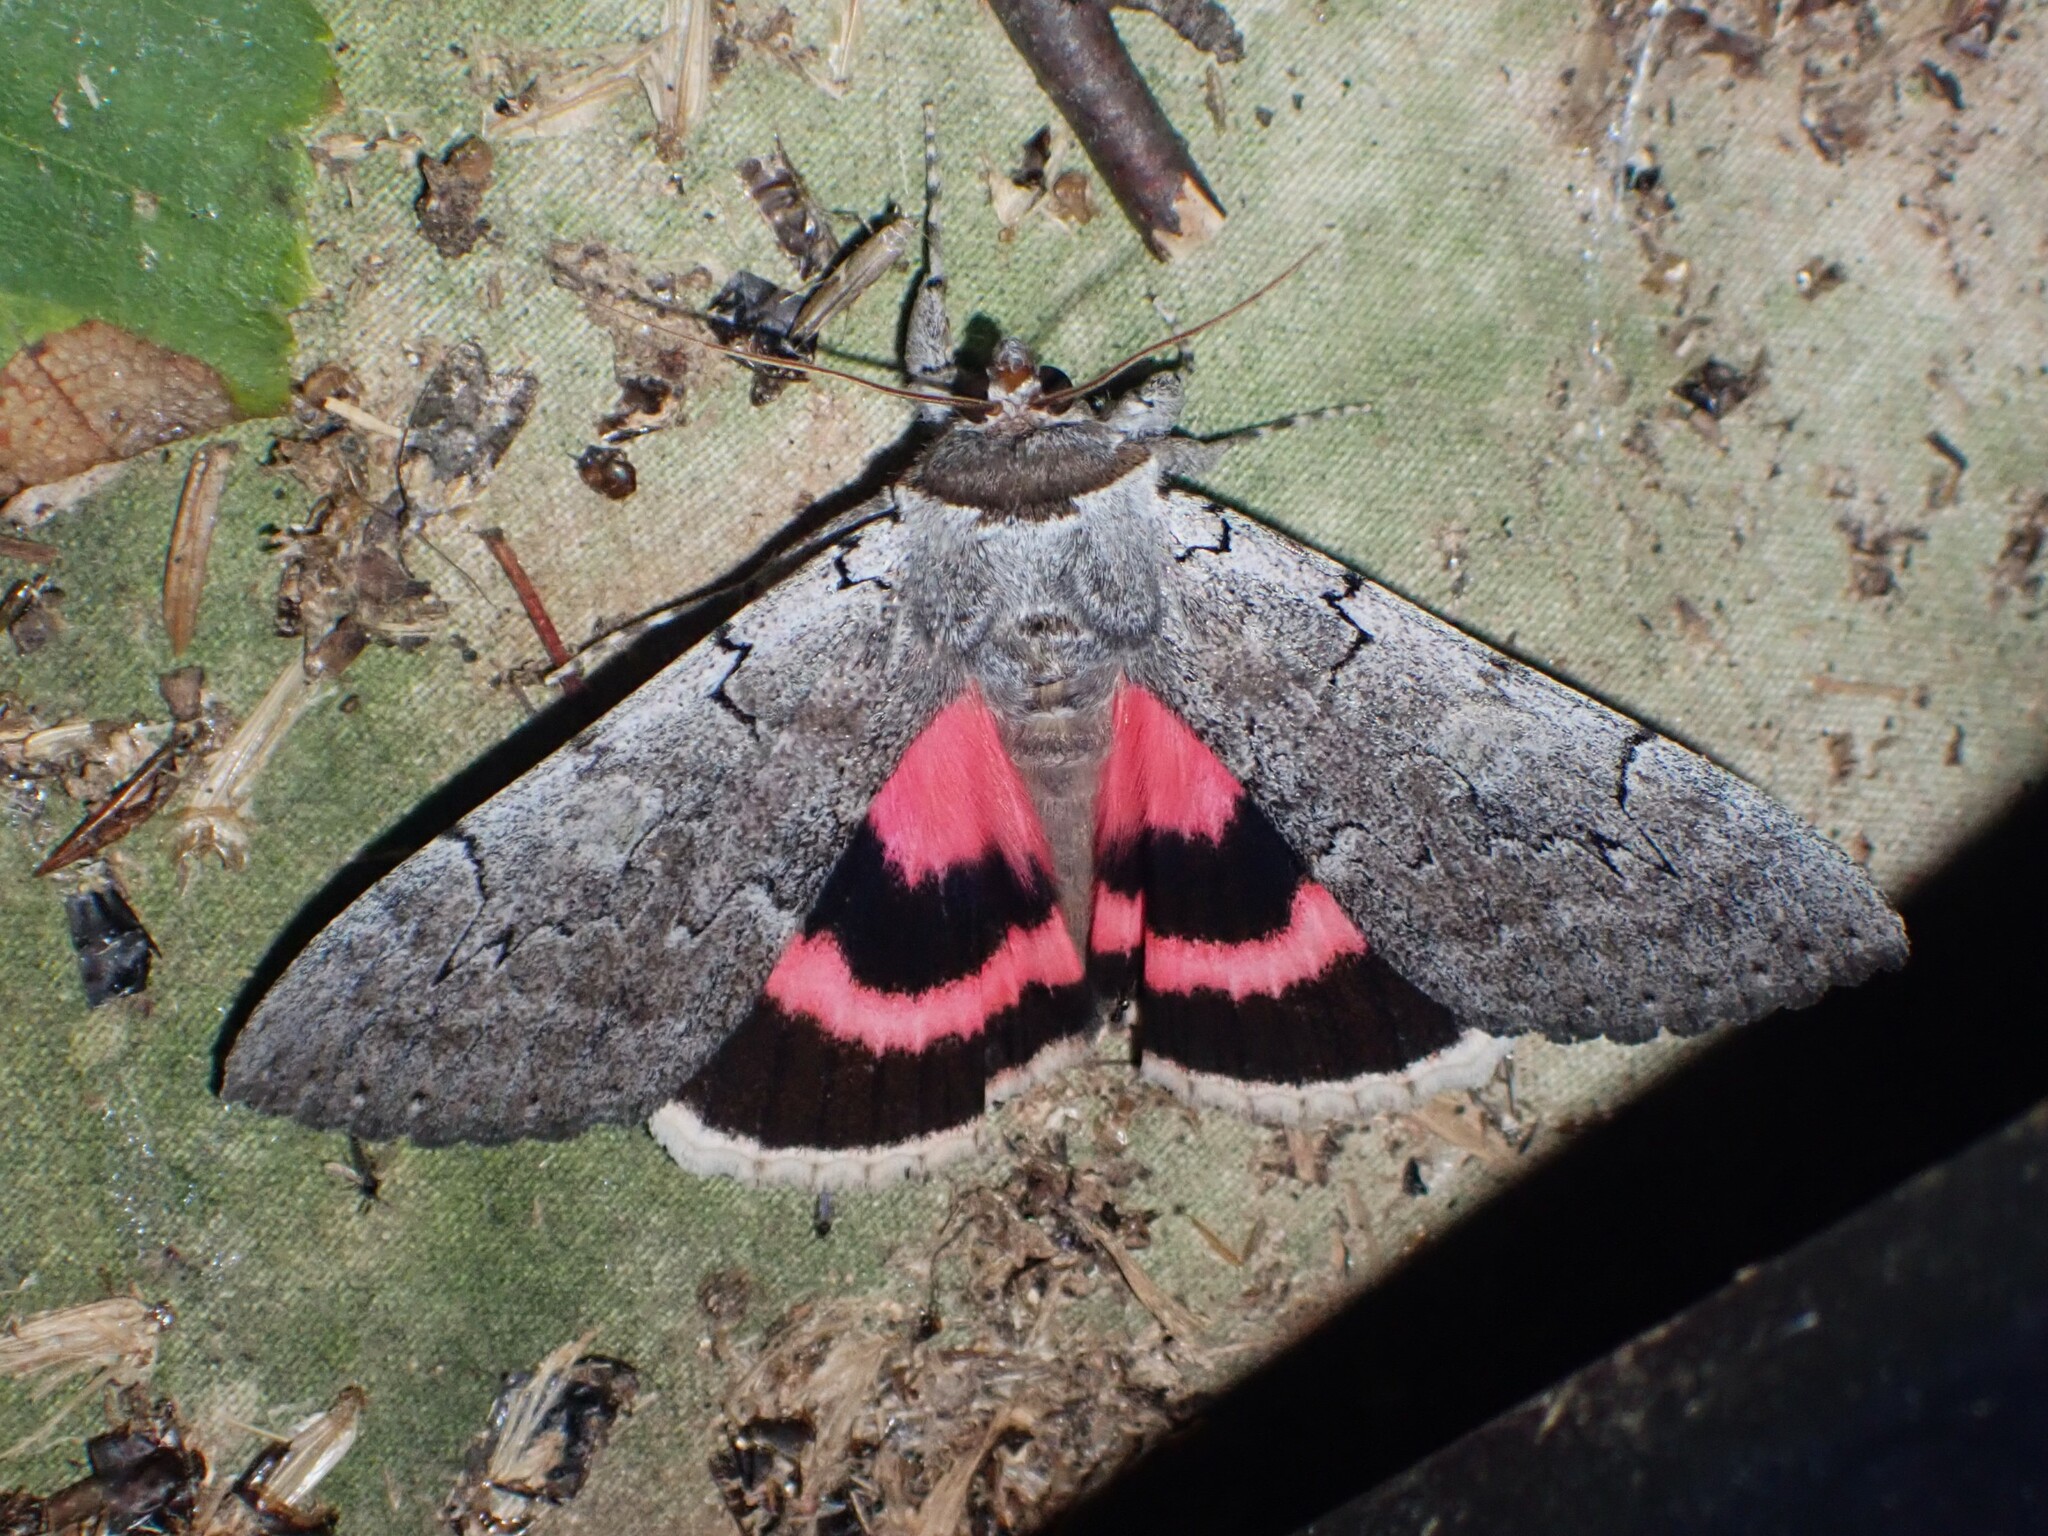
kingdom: Animalia
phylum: Arthropoda
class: Insecta
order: Lepidoptera
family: Erebidae
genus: Catocala
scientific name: Catocala concumbens
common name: Pink underwing
